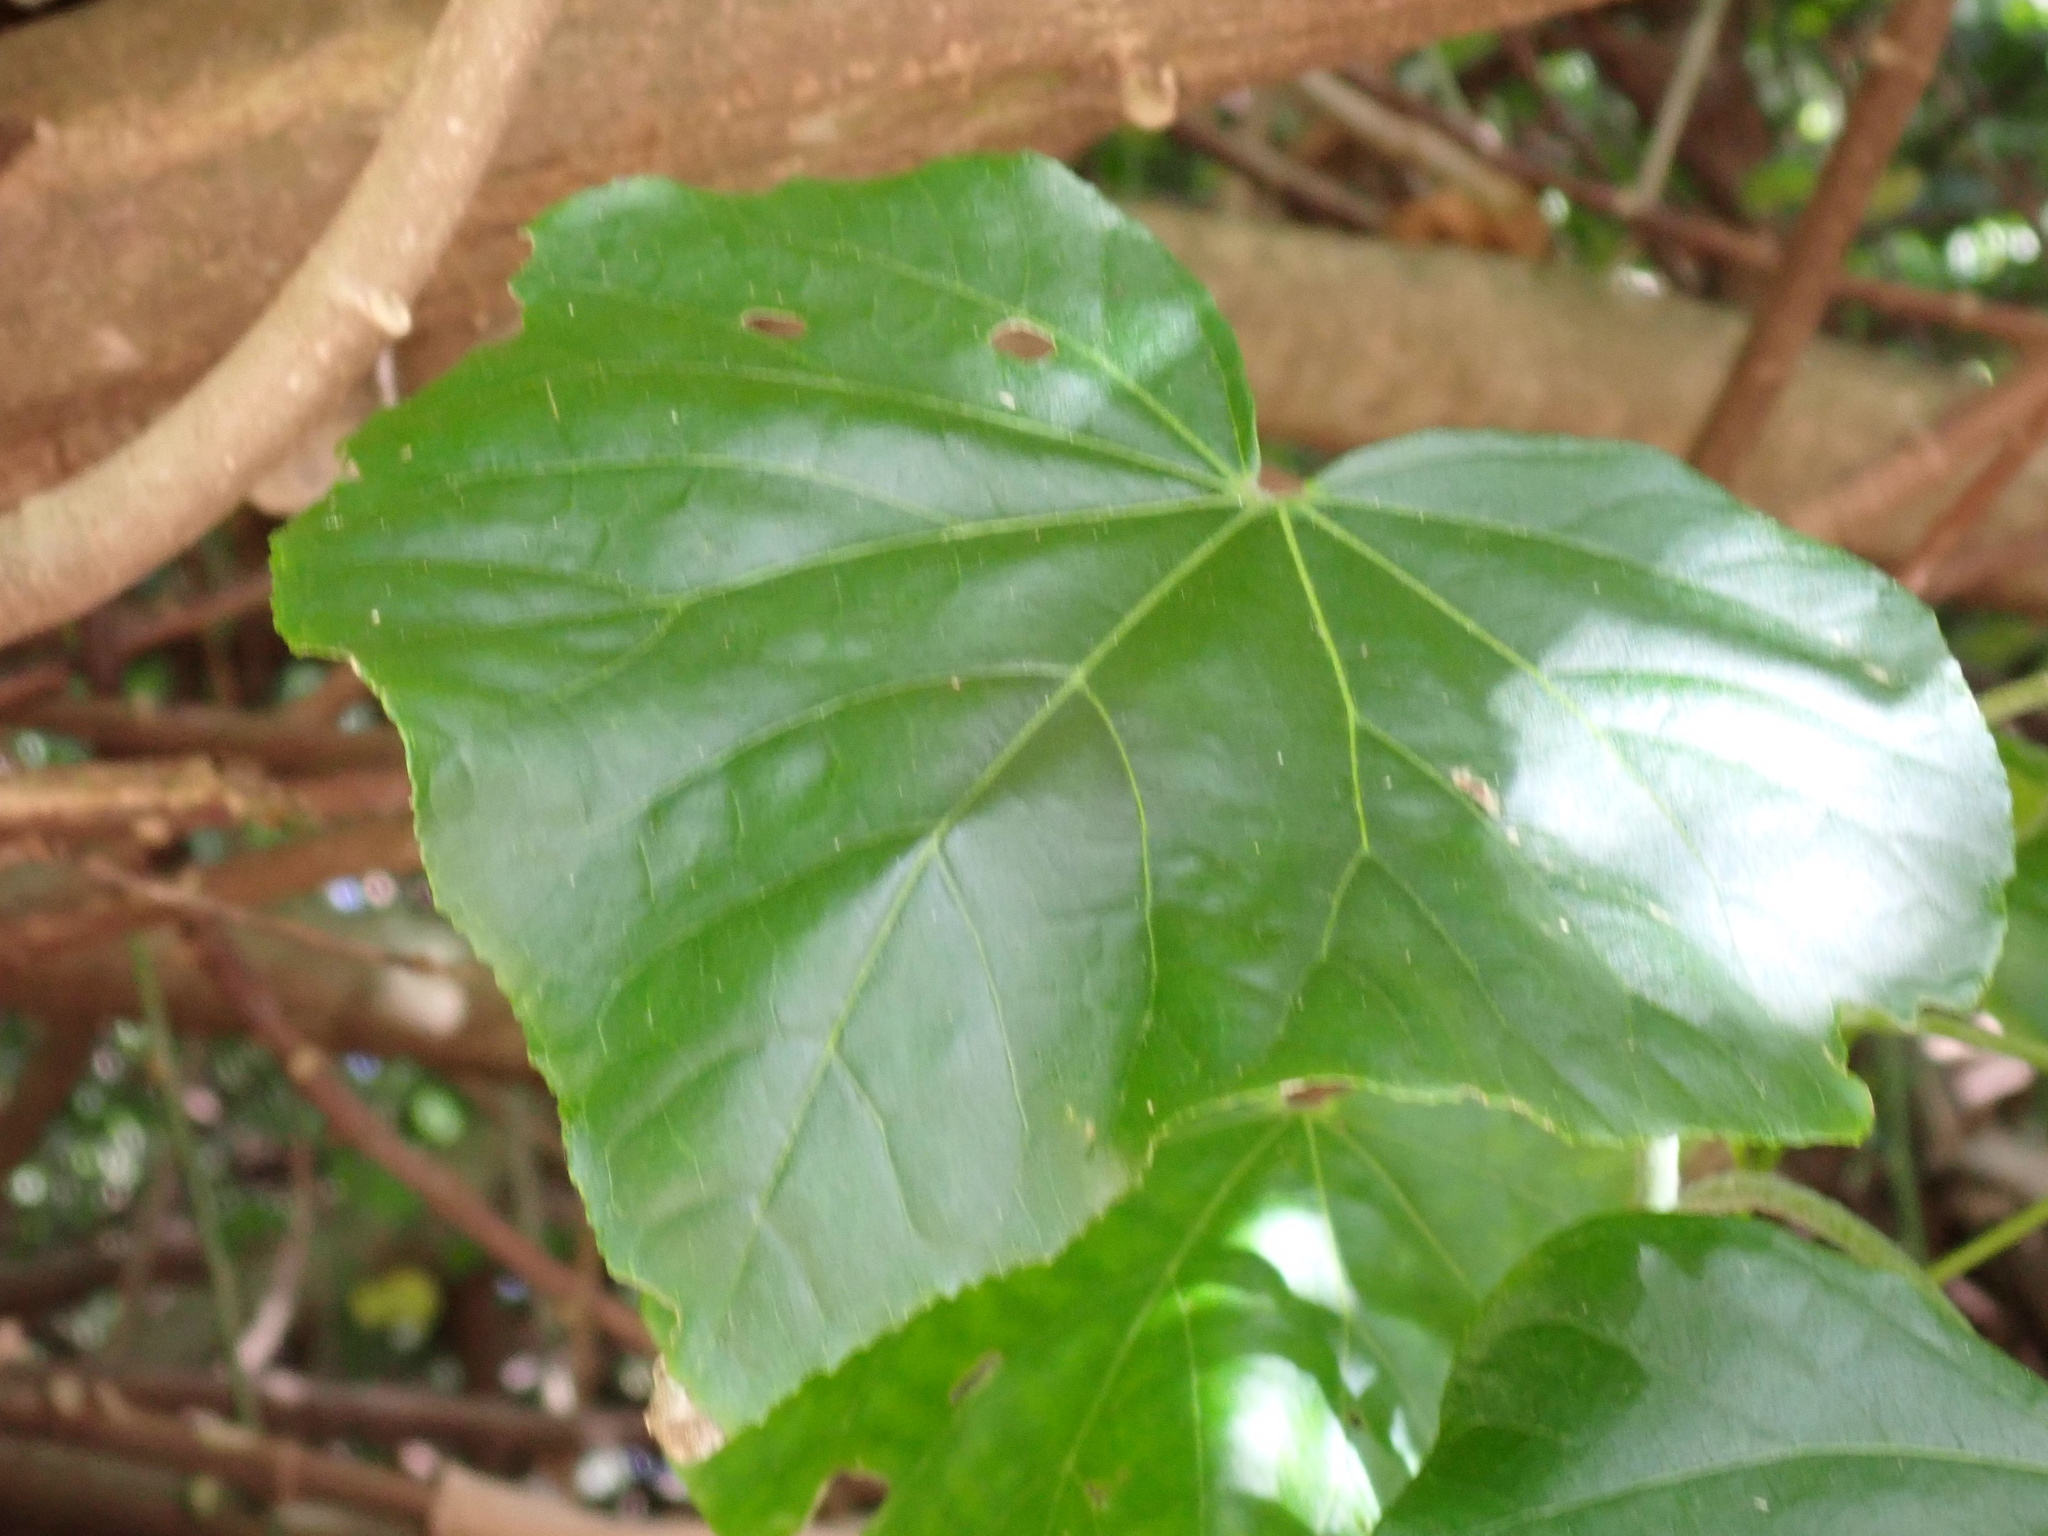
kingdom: Plantae
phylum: Tracheophyta
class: Magnoliopsida
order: Malvales
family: Malvaceae
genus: Talipariti
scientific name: Talipariti tiliaceum
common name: Sea hibiscus
